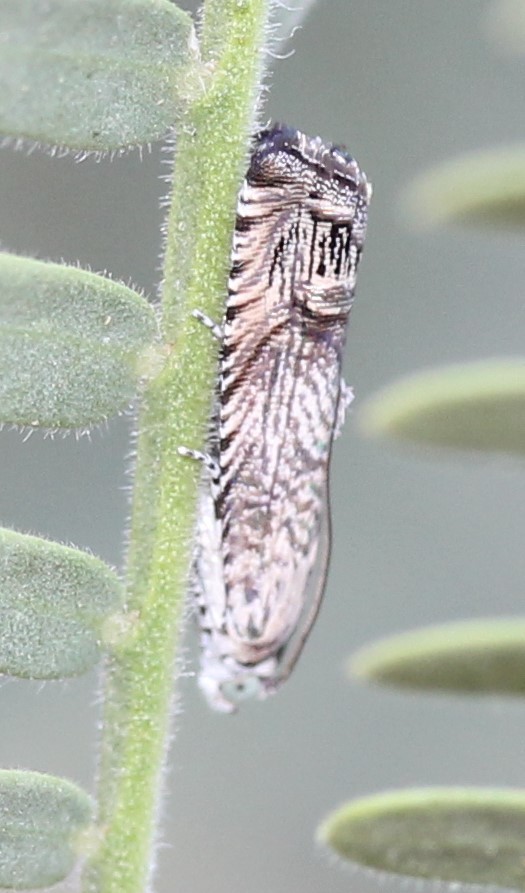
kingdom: Animalia
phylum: Arthropoda
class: Insecta
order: Lepidoptera
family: Tortricidae
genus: Ofatulena
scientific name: Ofatulena duodecemstriata
